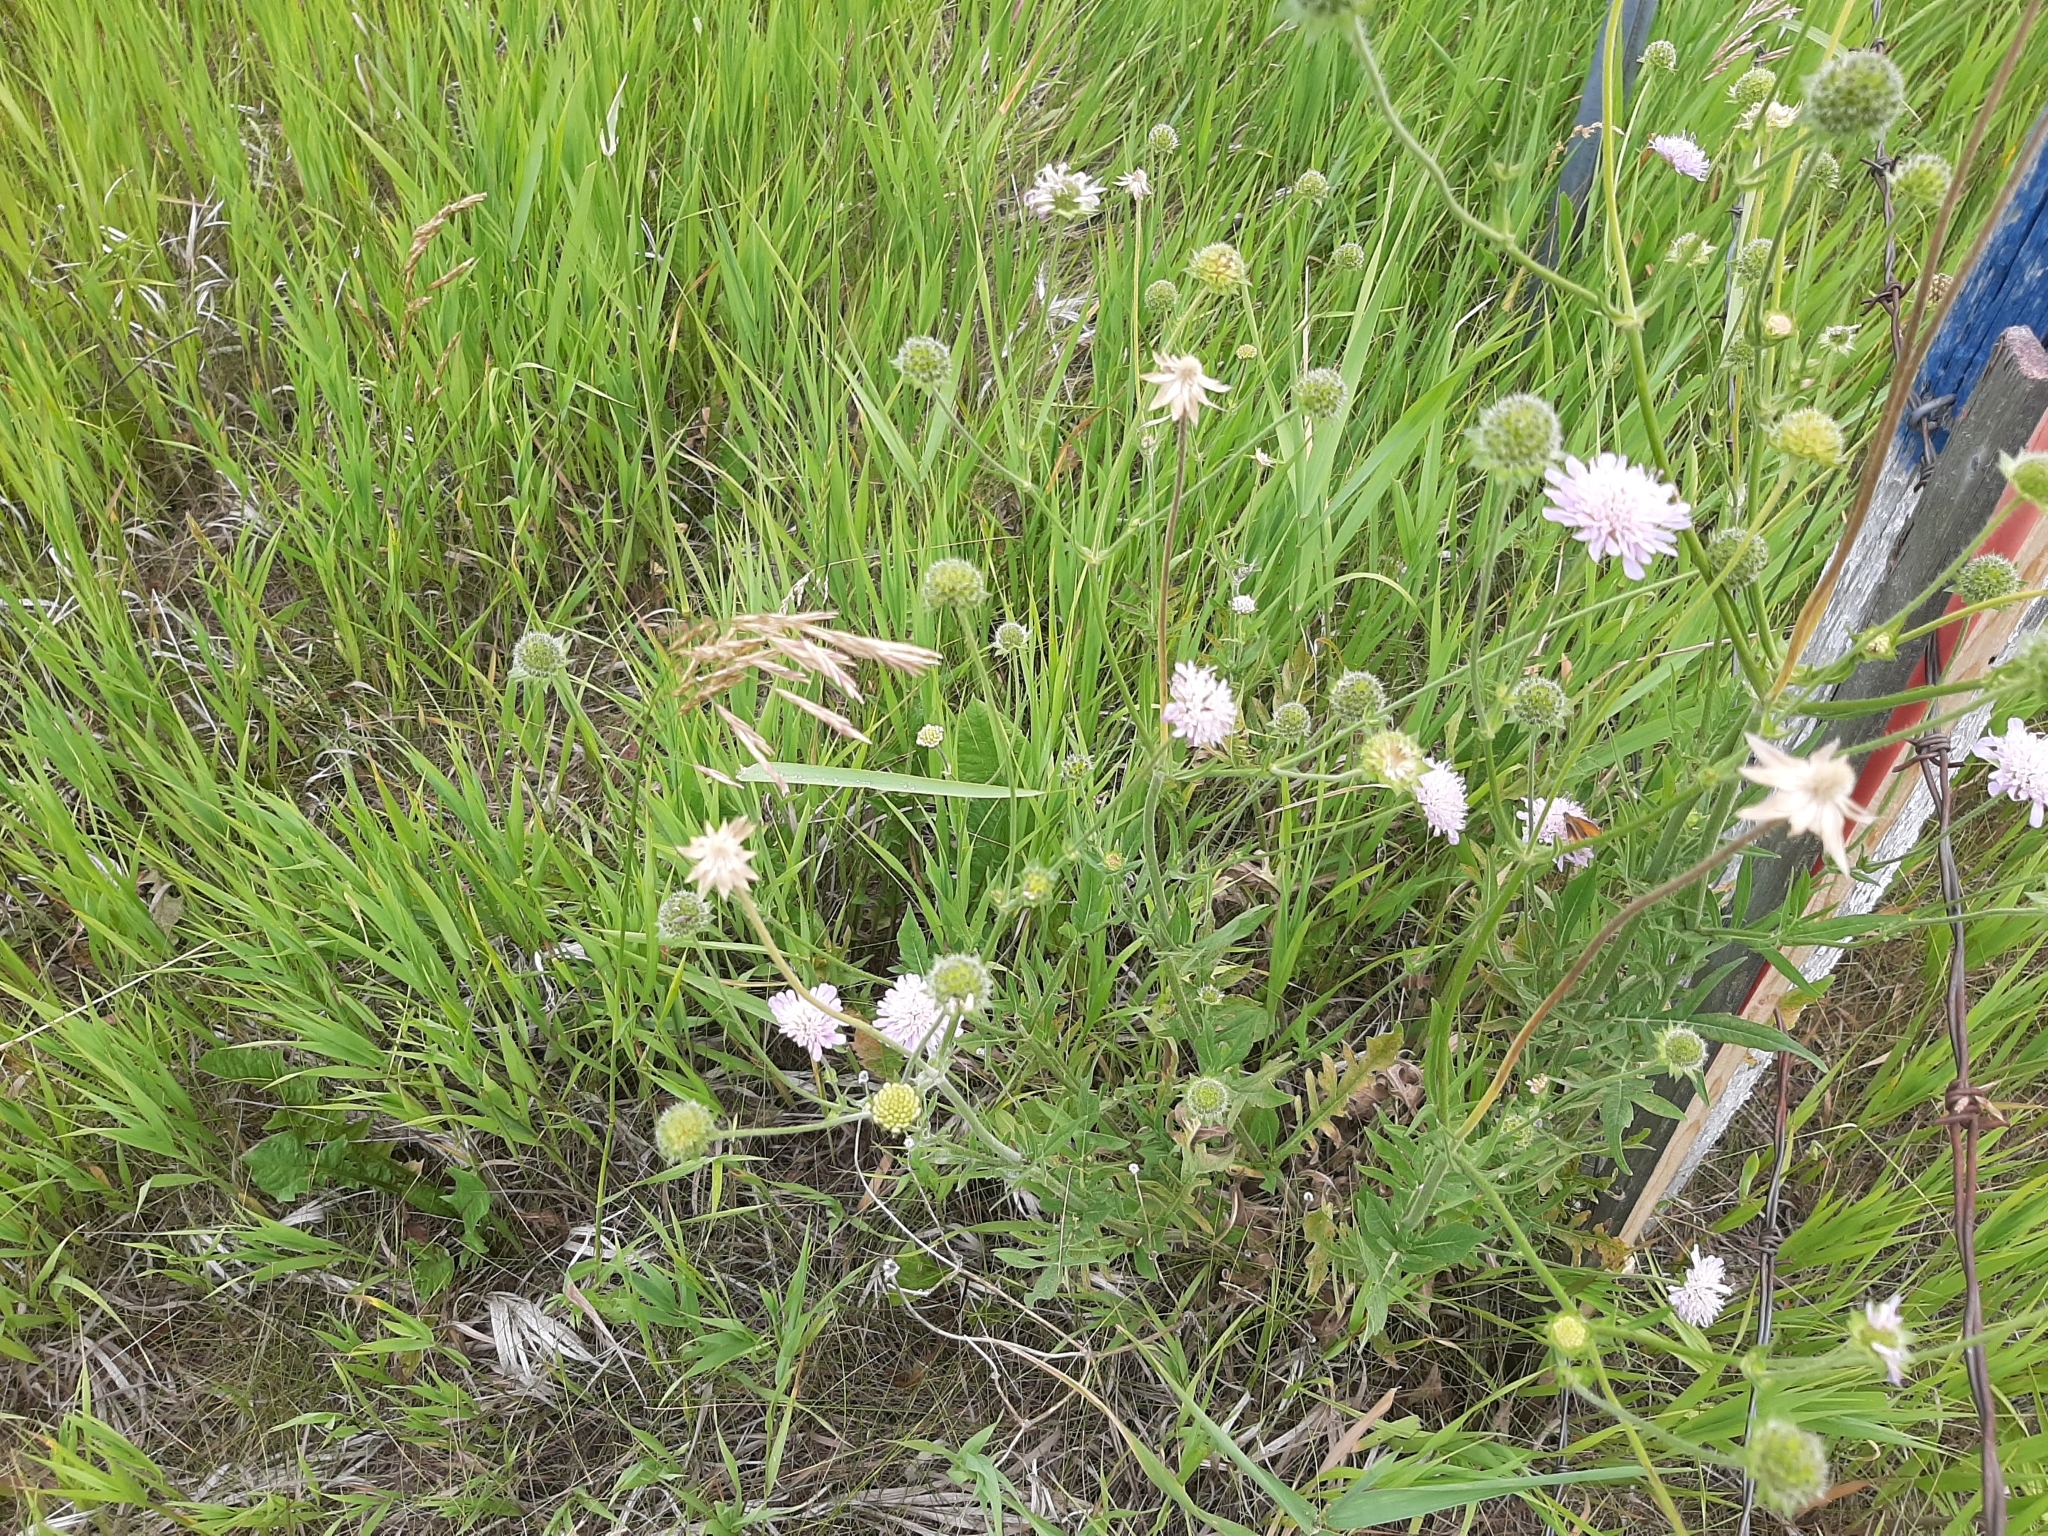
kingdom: Plantae
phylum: Tracheophyta
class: Magnoliopsida
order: Dipsacales
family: Caprifoliaceae
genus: Knautia
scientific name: Knautia arvensis
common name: Field scabiosa
